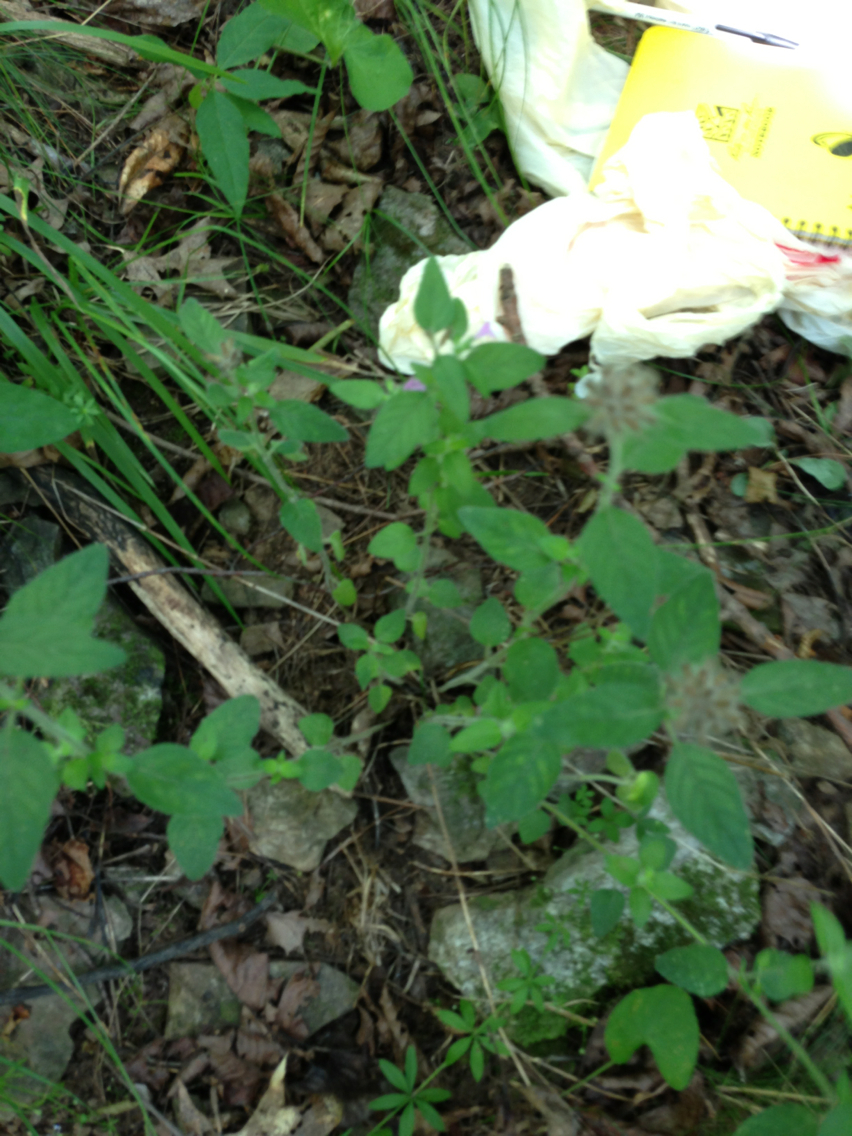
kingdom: Plantae
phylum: Tracheophyta
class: Magnoliopsida
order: Lamiales
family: Lamiaceae
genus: Clinopodium
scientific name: Clinopodium vulgare
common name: Wild basil
